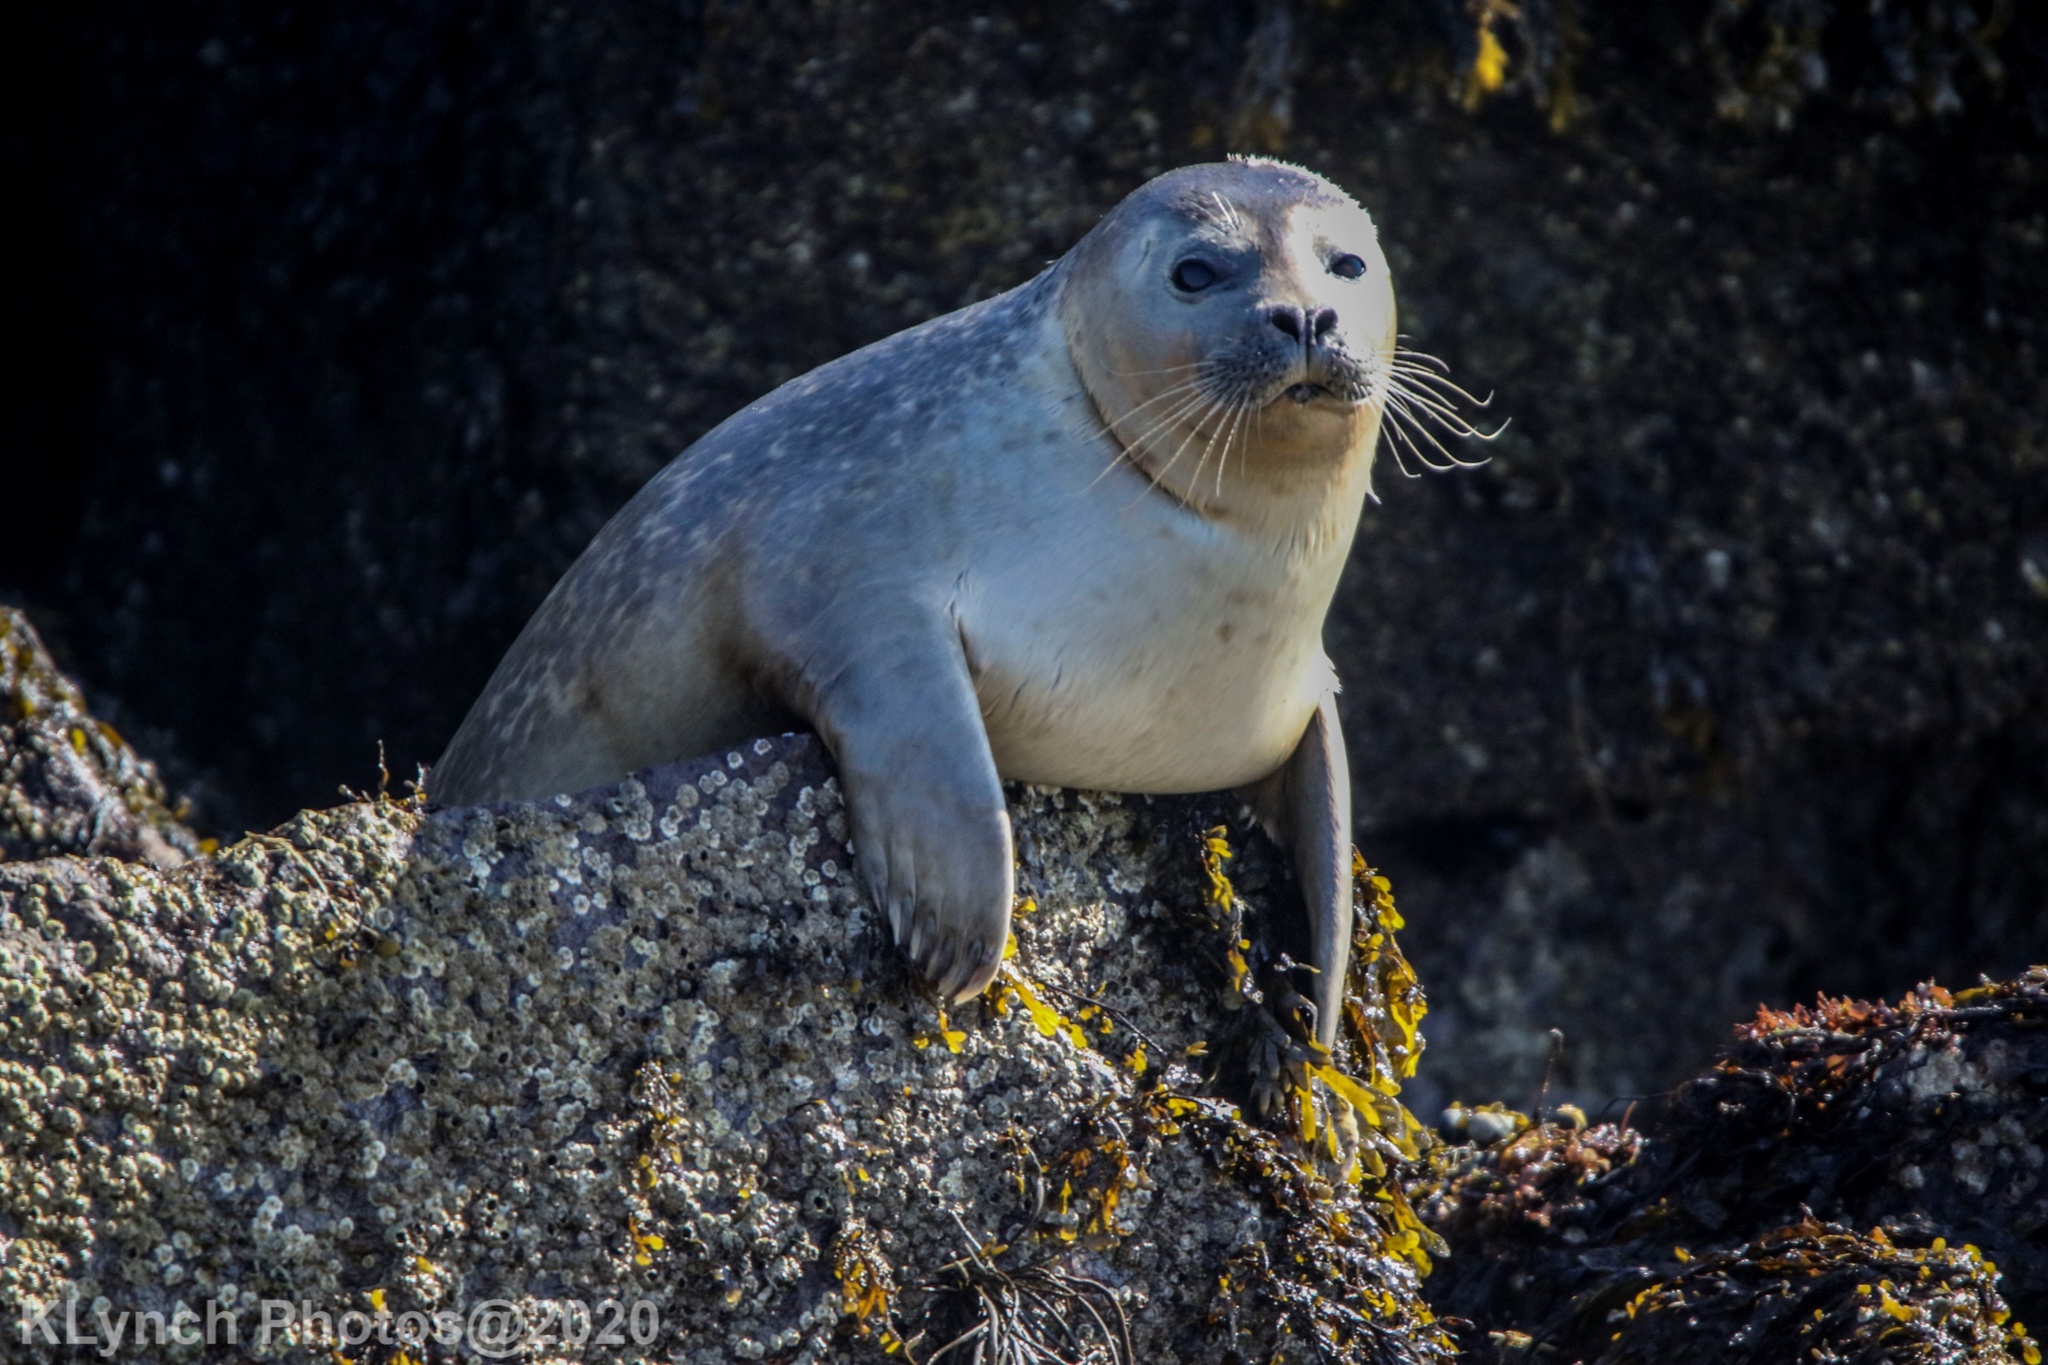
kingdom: Animalia
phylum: Chordata
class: Mammalia
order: Carnivora
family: Phocidae
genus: Phoca
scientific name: Phoca vitulina
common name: Harbor seal
